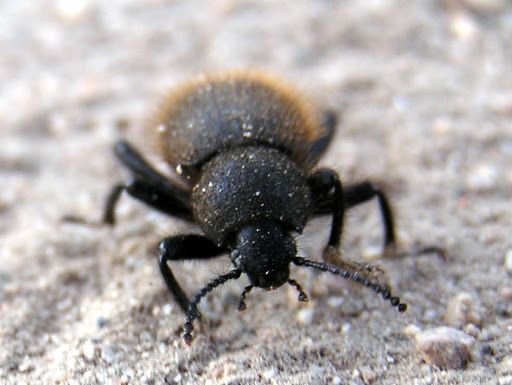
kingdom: Animalia
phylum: Arthropoda
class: Insecta
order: Coleoptera
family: Tenebrionidae
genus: Eleodes
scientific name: Eleodes osculans
